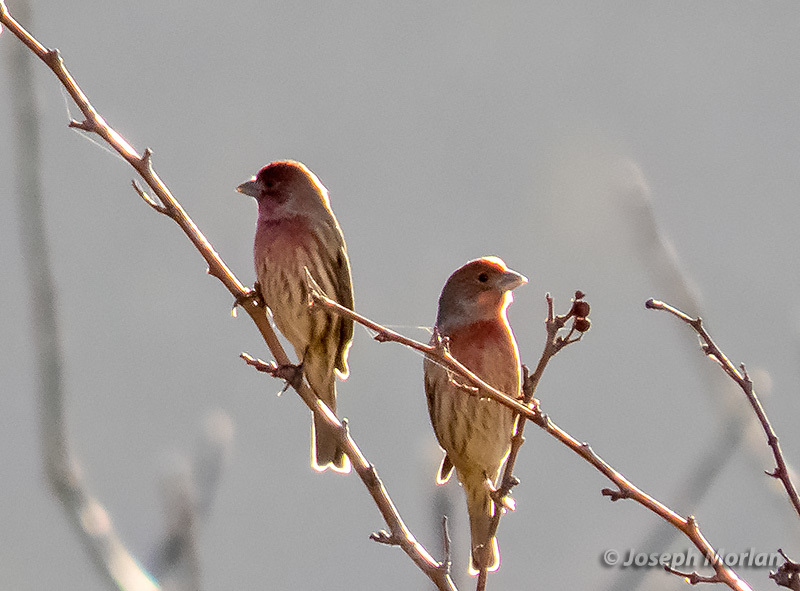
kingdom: Animalia
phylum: Chordata
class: Aves
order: Passeriformes
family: Fringillidae
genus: Haemorhous
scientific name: Haemorhous mexicanus
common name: House finch
